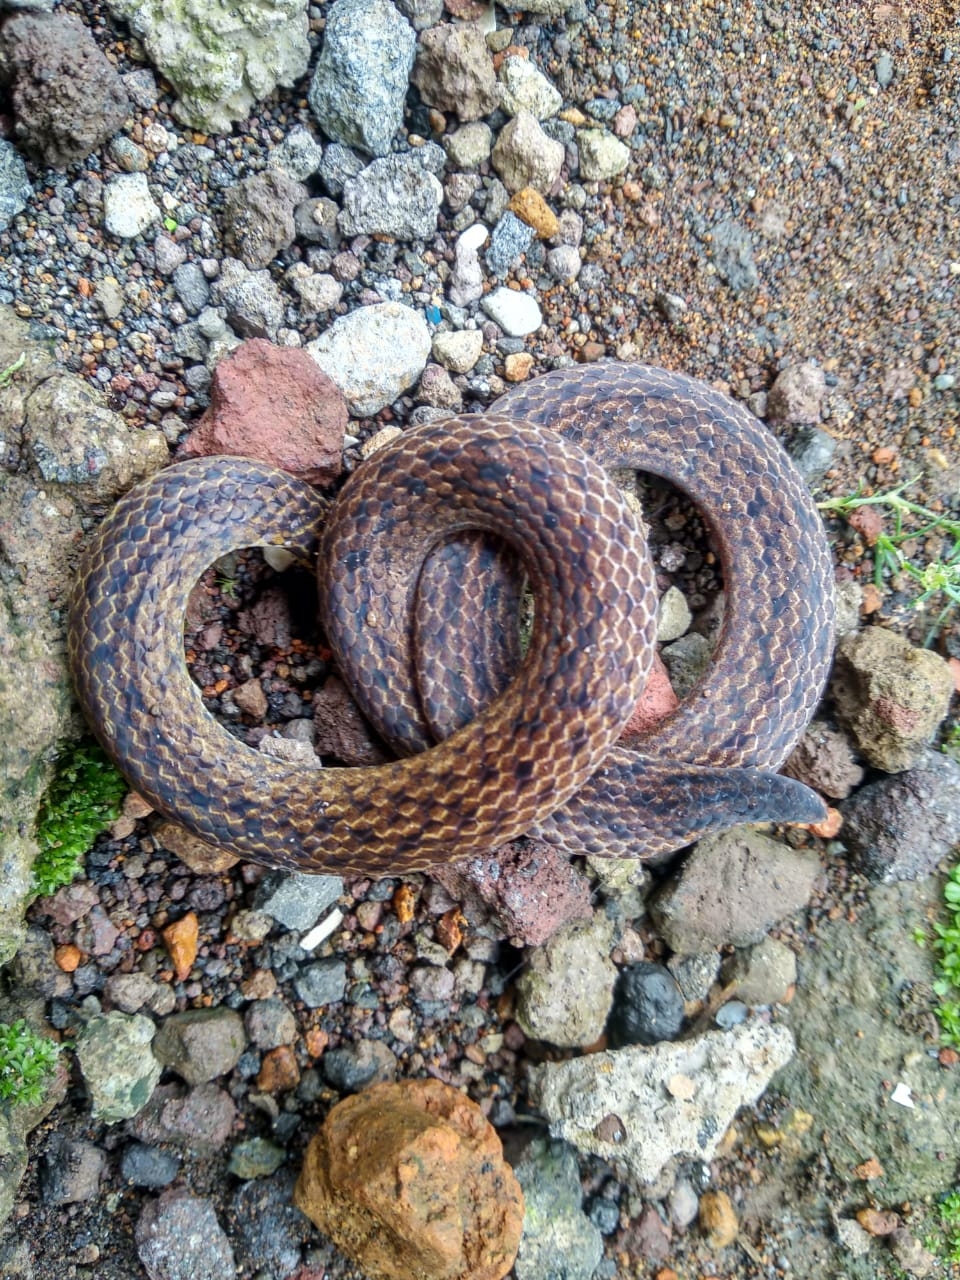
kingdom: Animalia
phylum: Chordata
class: Squamata
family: Colubridae
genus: Calamaria
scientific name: Calamaria linnaei
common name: Linnaeus's reed snake
